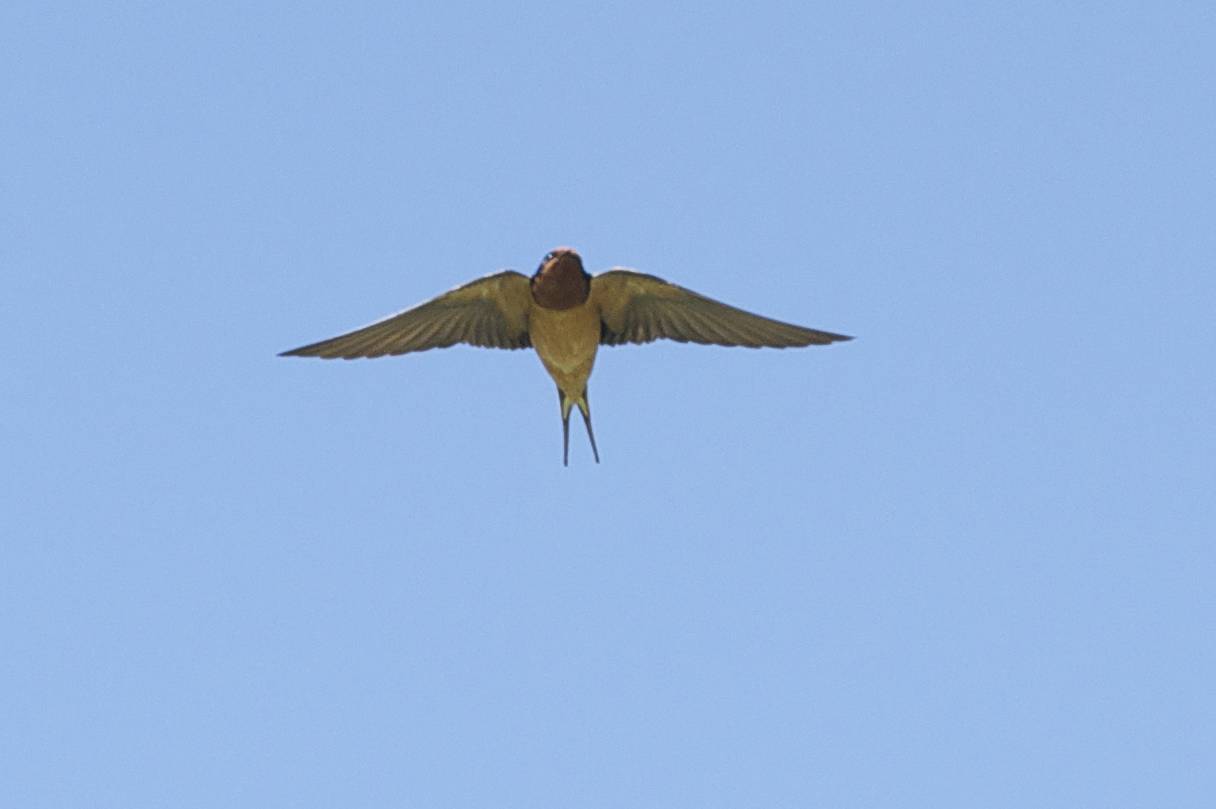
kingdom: Animalia
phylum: Chordata
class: Aves
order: Passeriformes
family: Hirundinidae
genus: Hirundo
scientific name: Hirundo rustica
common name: Barn swallow
